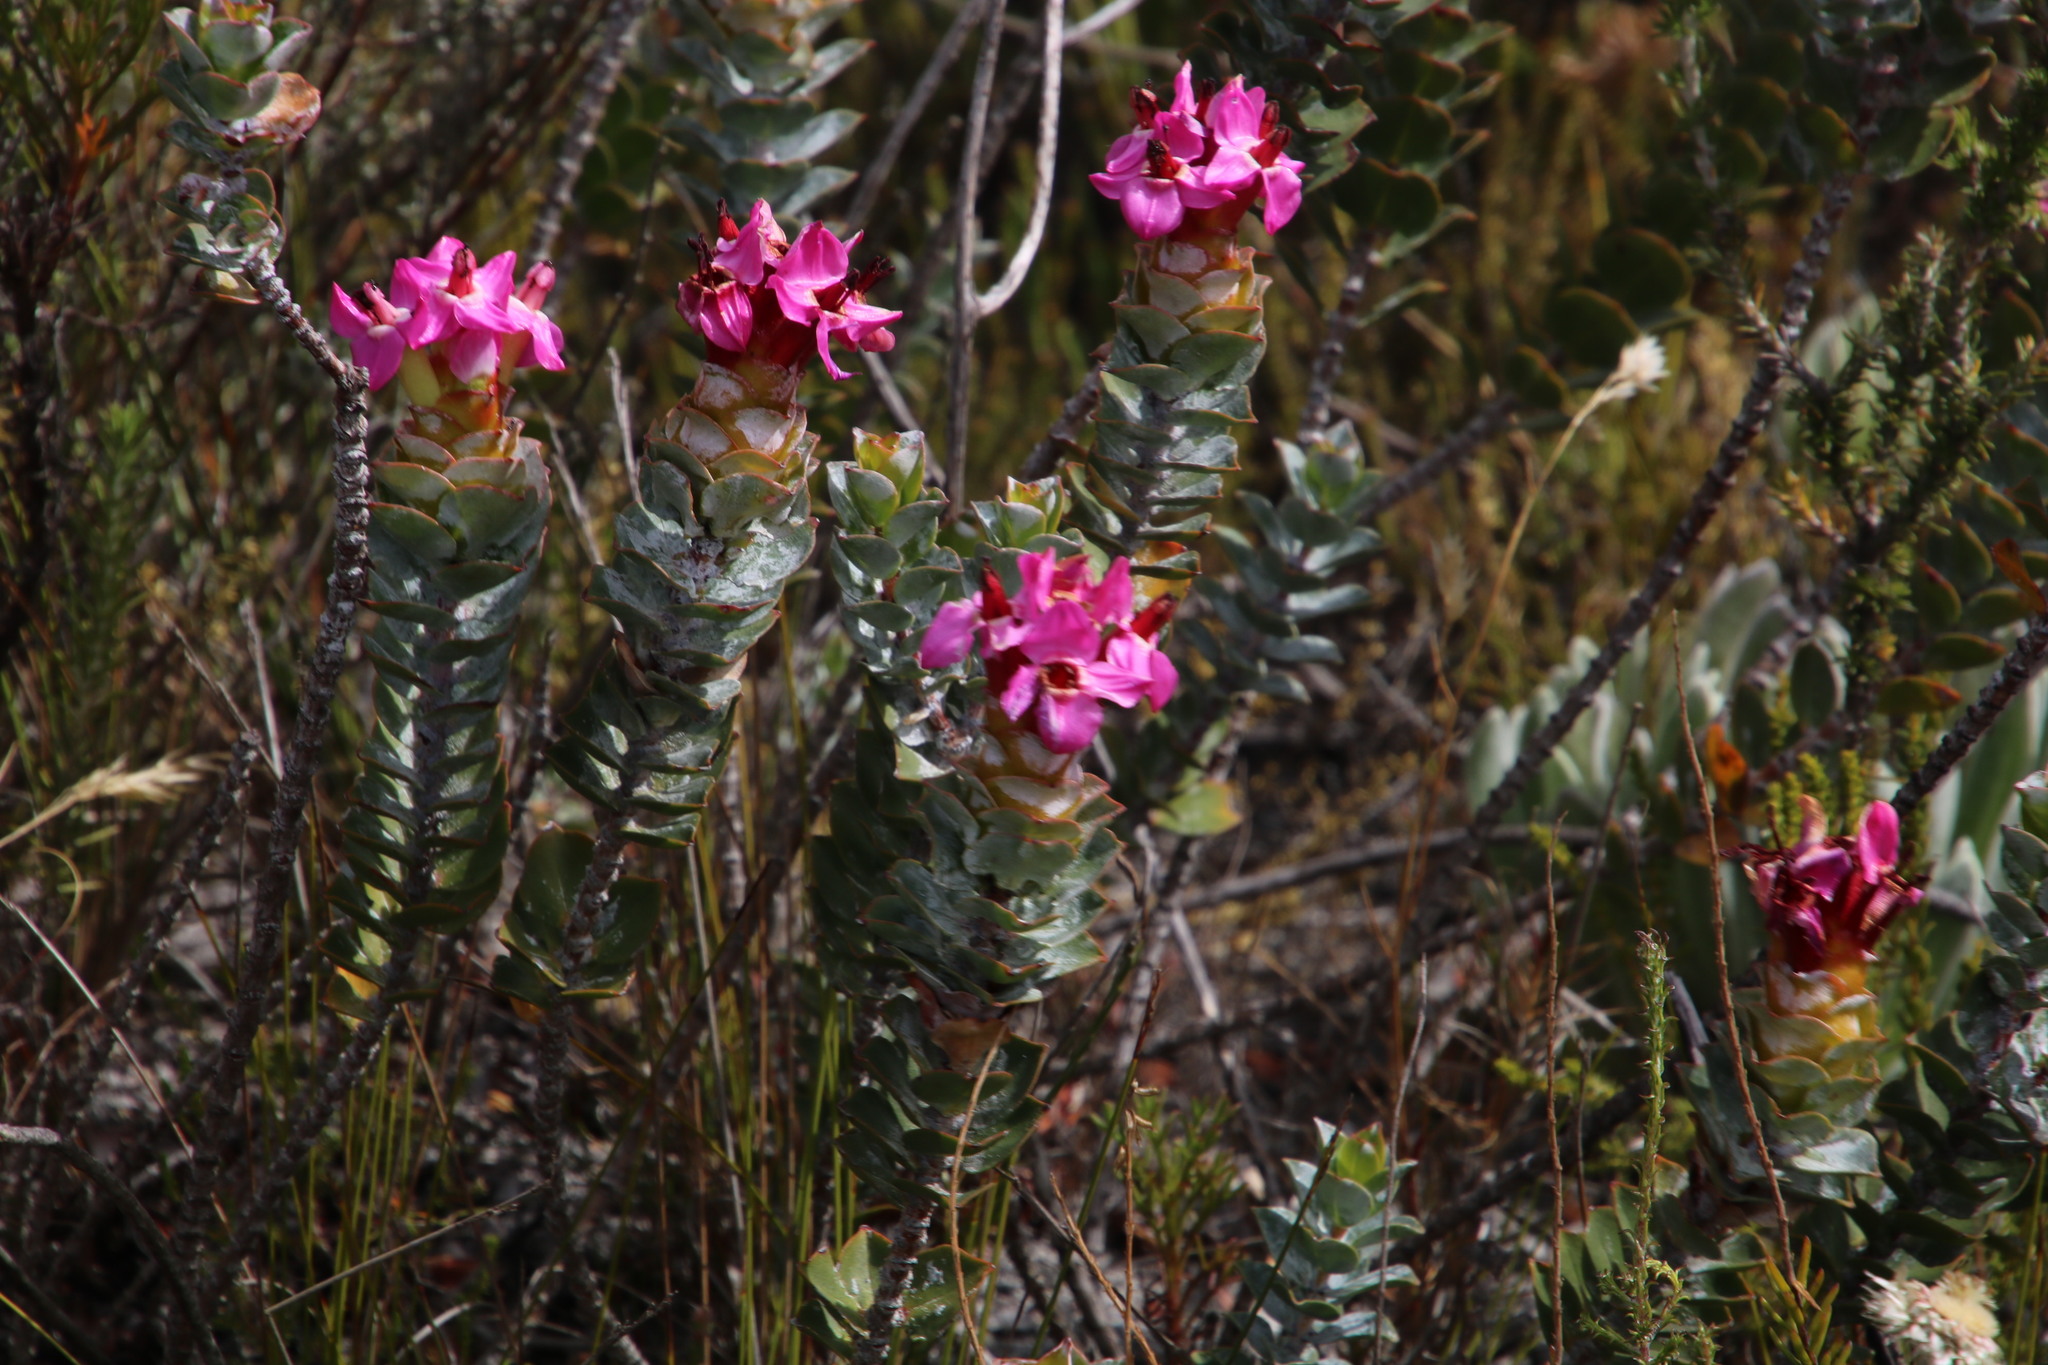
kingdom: Plantae
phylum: Tracheophyta
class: Magnoliopsida
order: Myrtales
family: Penaeaceae
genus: Saltera
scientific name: Saltera sarcocolla
